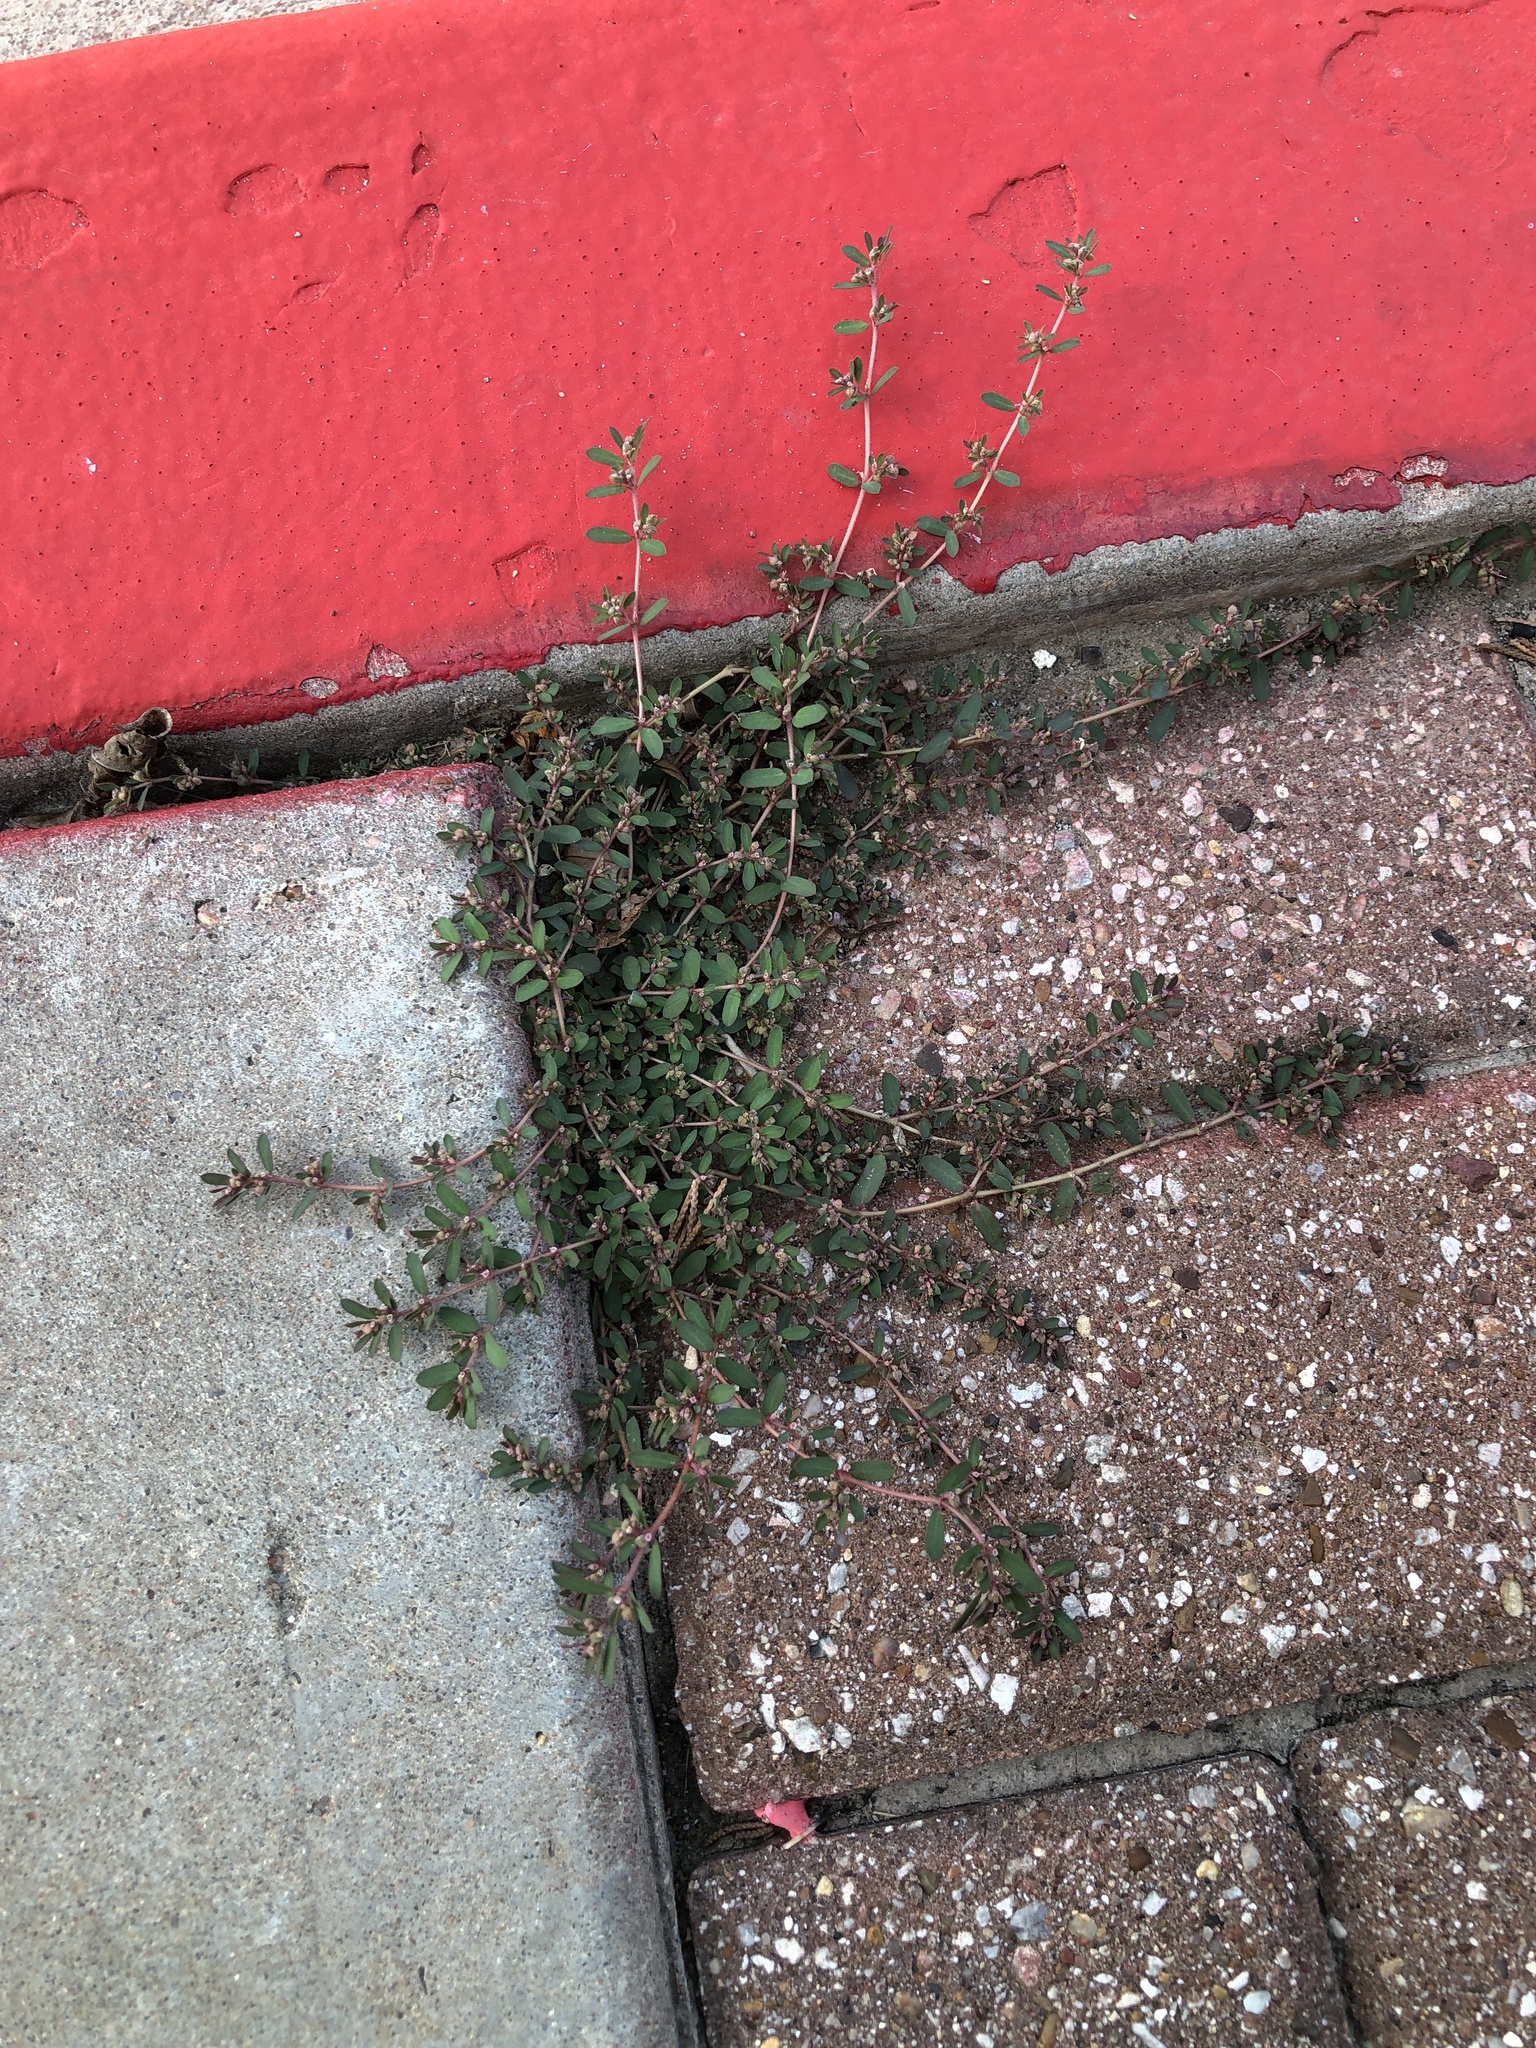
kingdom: Plantae
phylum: Tracheophyta
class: Magnoliopsida
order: Malpighiales
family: Euphorbiaceae
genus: Euphorbia
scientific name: Euphorbia maculata
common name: Spotted spurge
